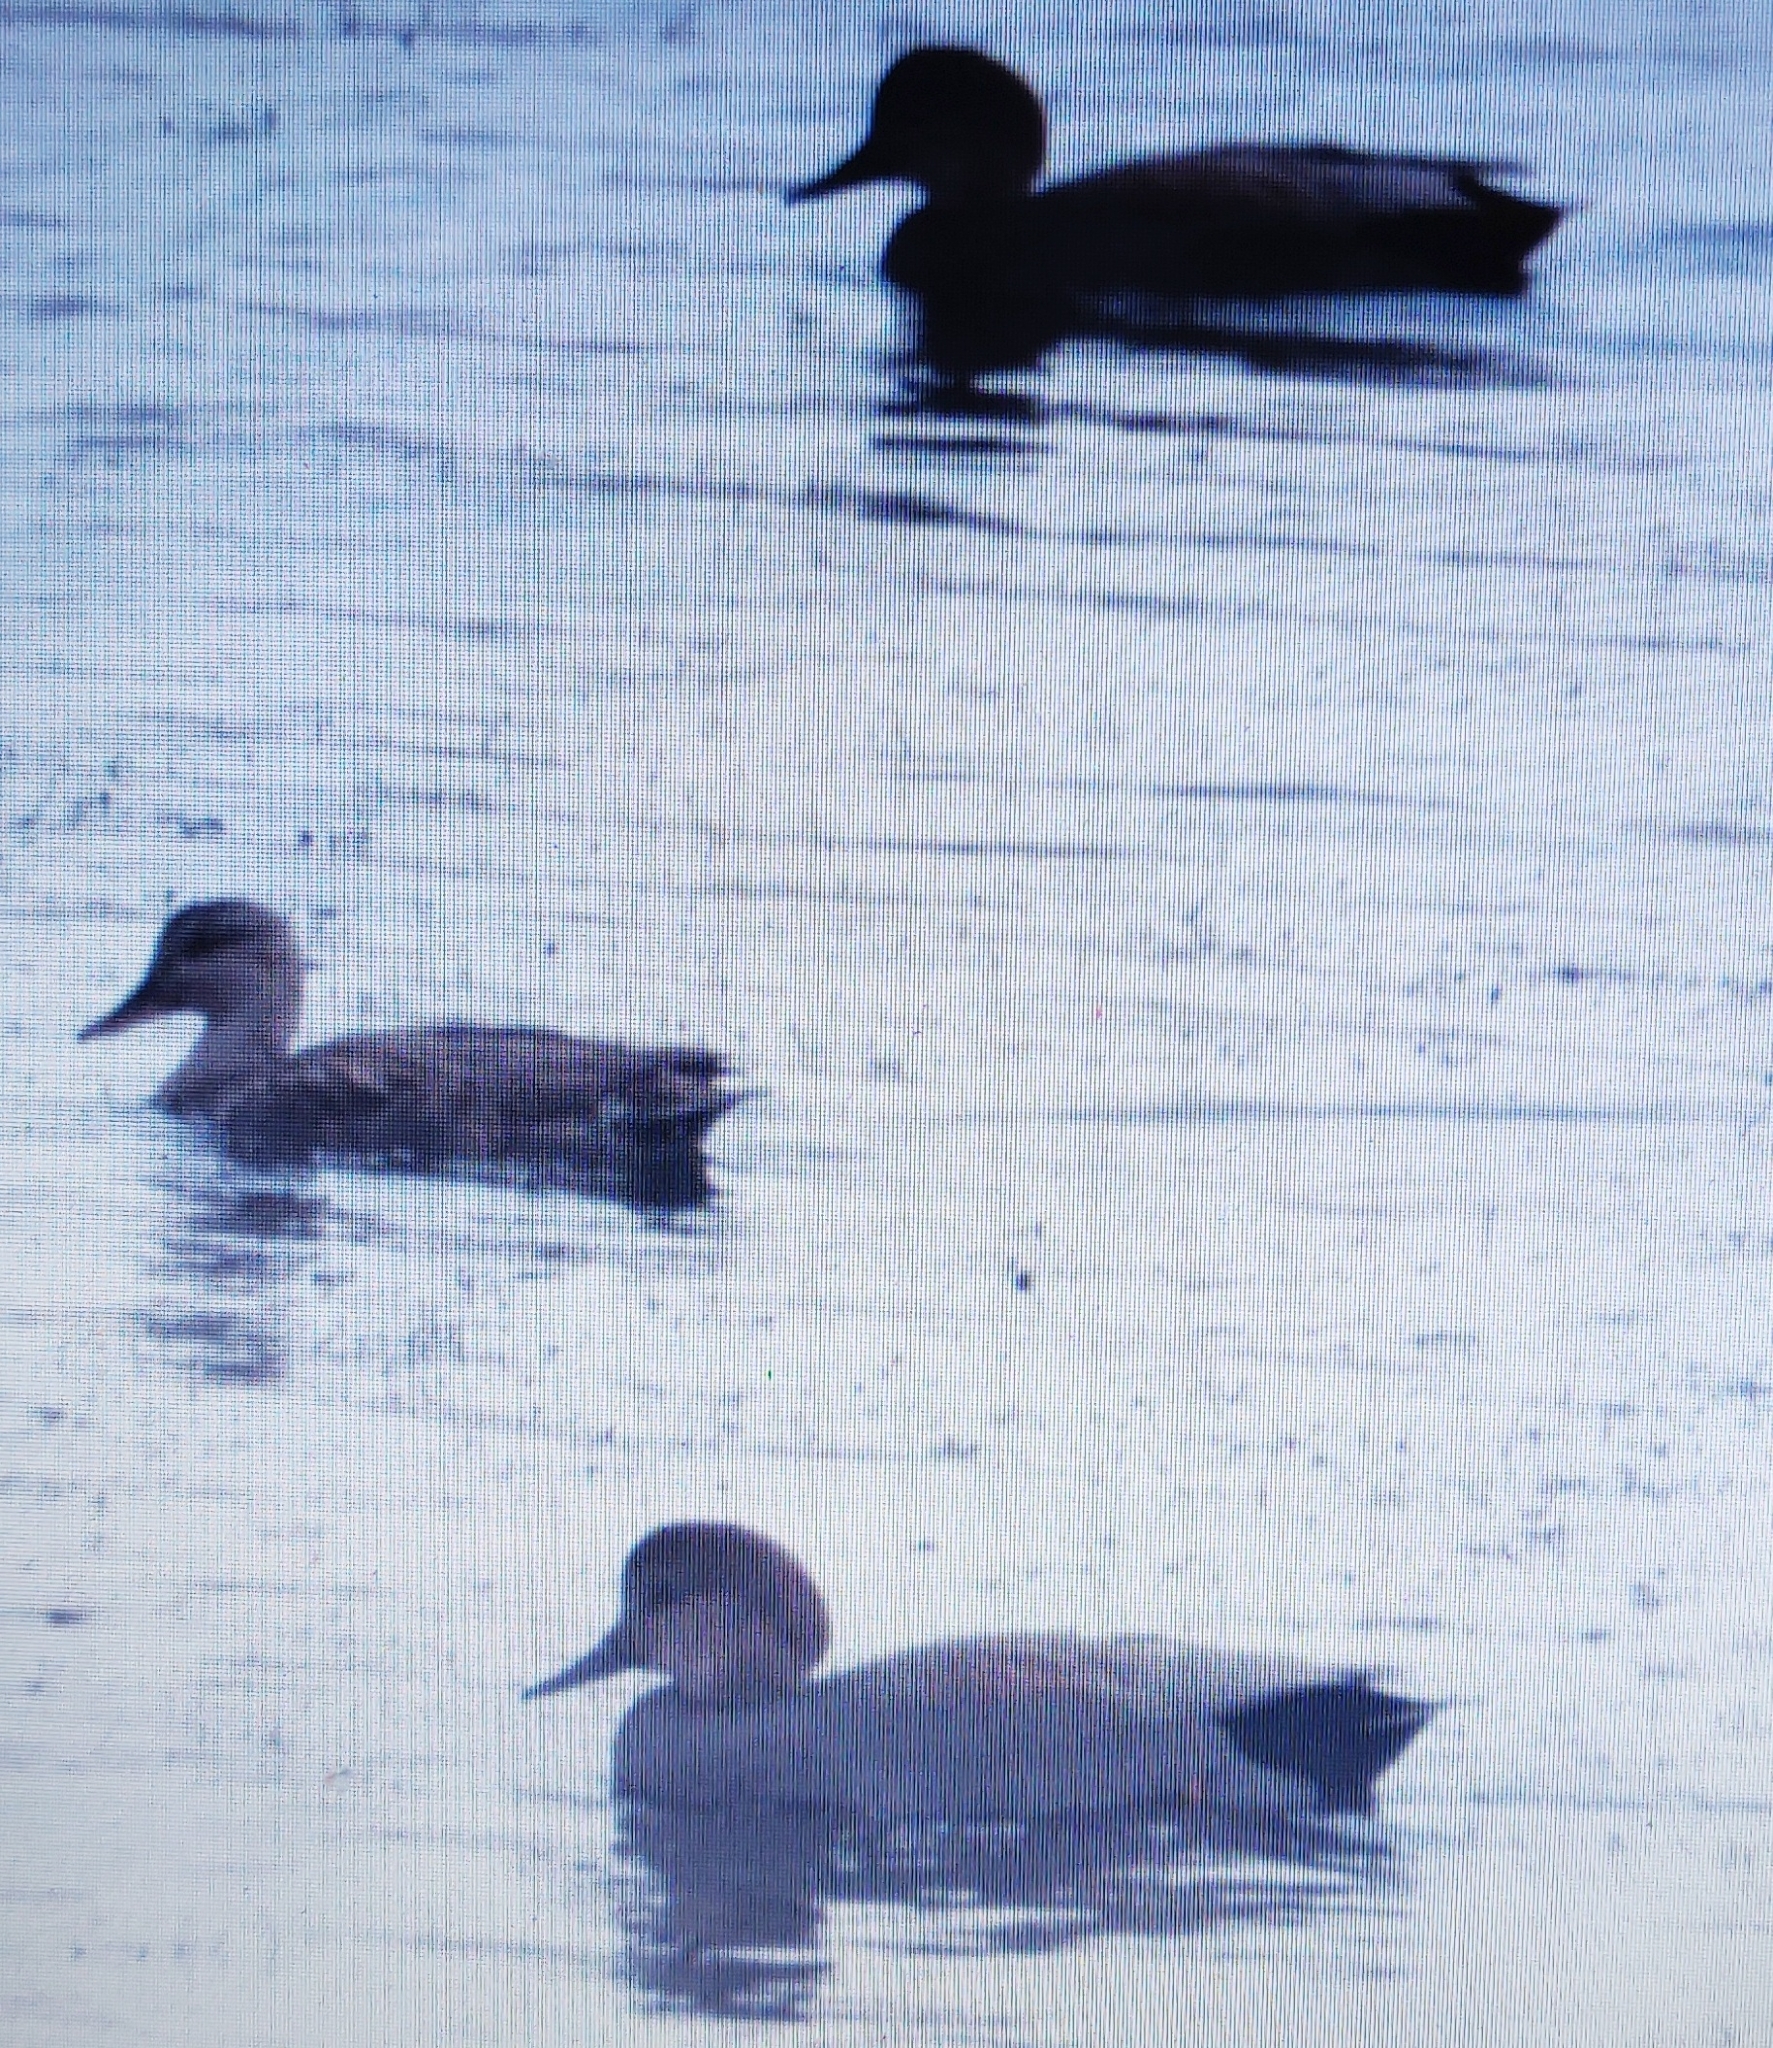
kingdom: Animalia
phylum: Chordata
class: Aves
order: Anseriformes
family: Anatidae
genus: Mareca
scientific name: Mareca strepera
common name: Gadwall
